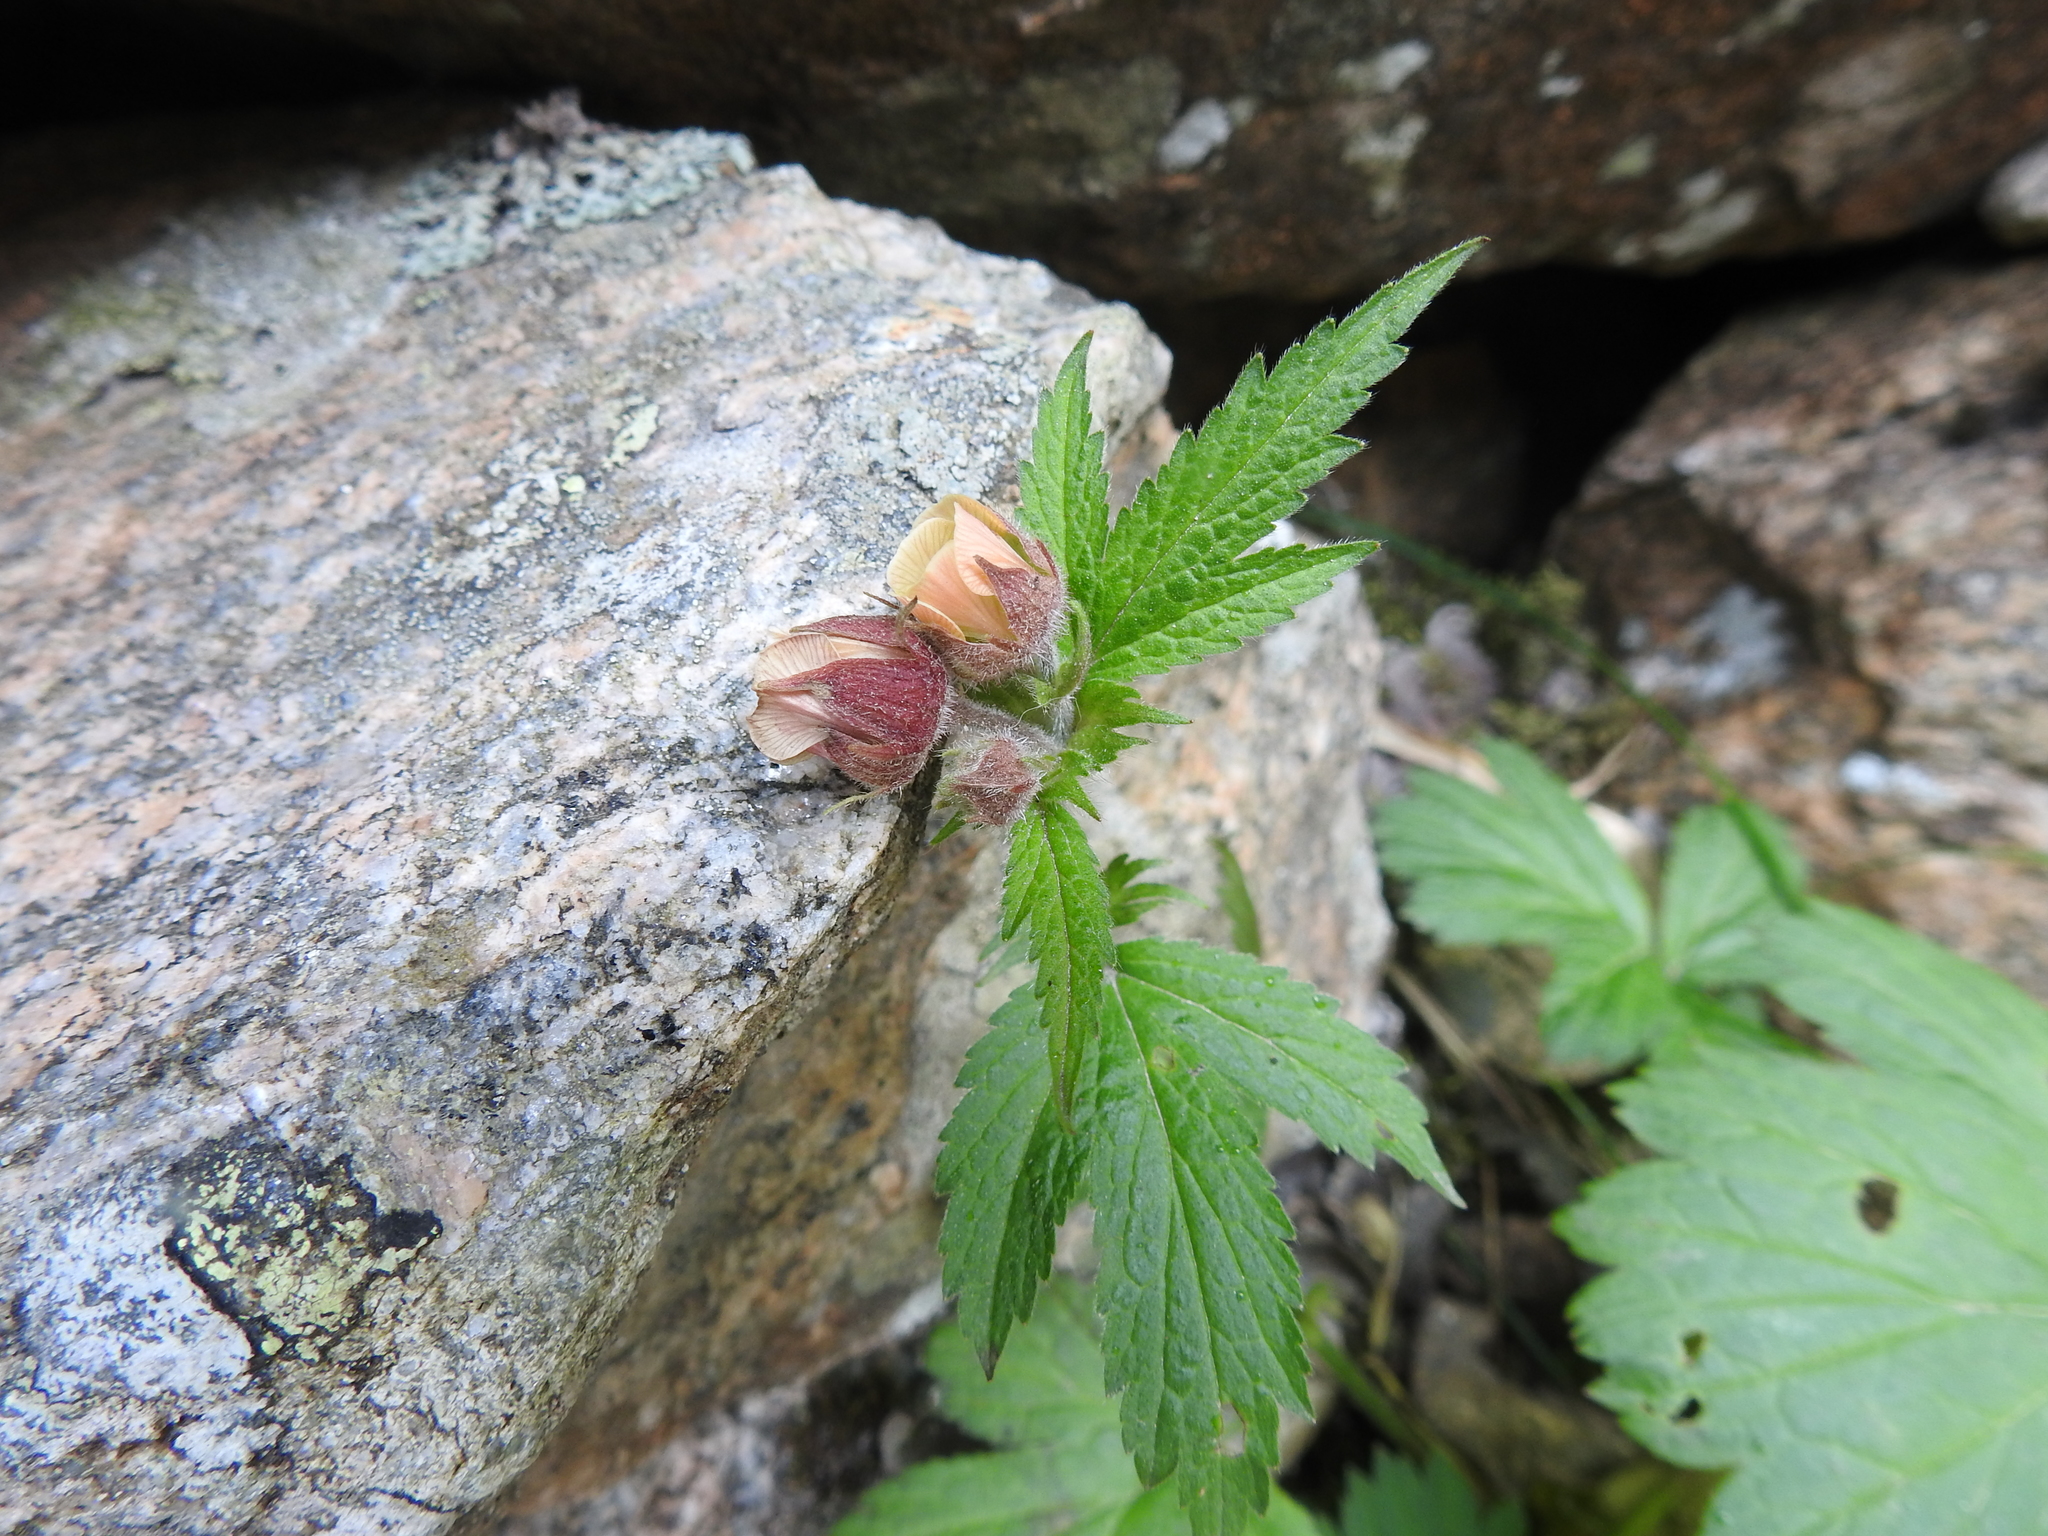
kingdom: Plantae
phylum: Tracheophyta
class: Magnoliopsida
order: Rosales
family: Rosaceae
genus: Geum
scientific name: Geum rivale
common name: Water avens
